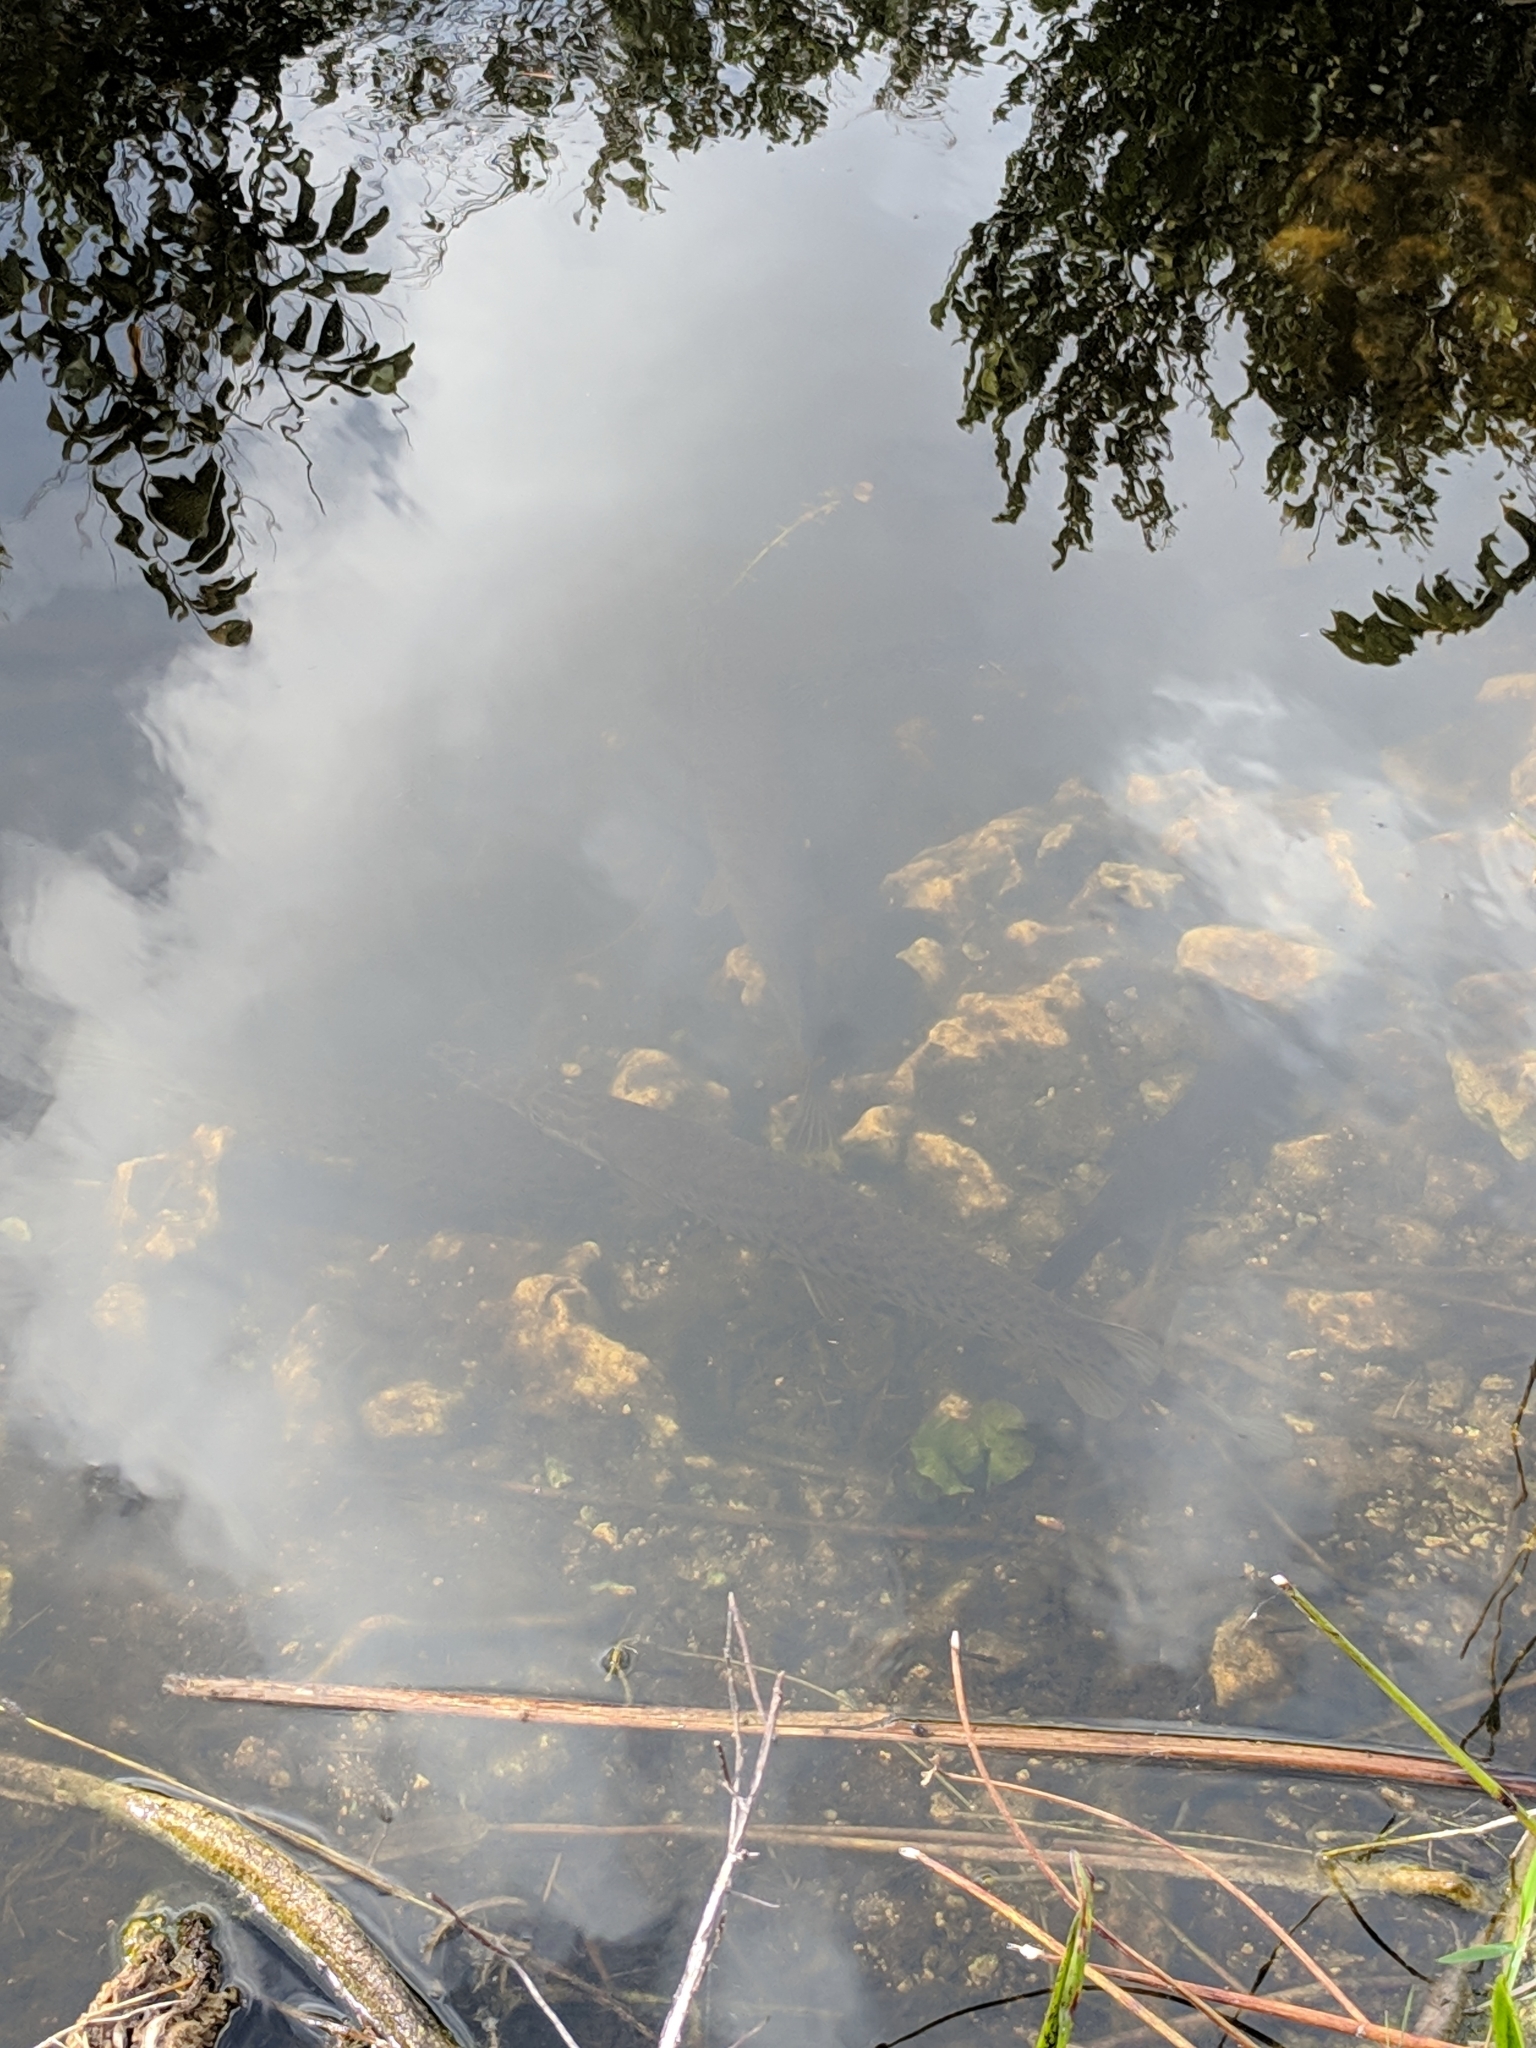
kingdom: Animalia
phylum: Chordata
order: Lepisosteiformes
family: Lepisosteidae
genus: Lepisosteus
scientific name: Lepisosteus platyrhincus
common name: Florida gar
